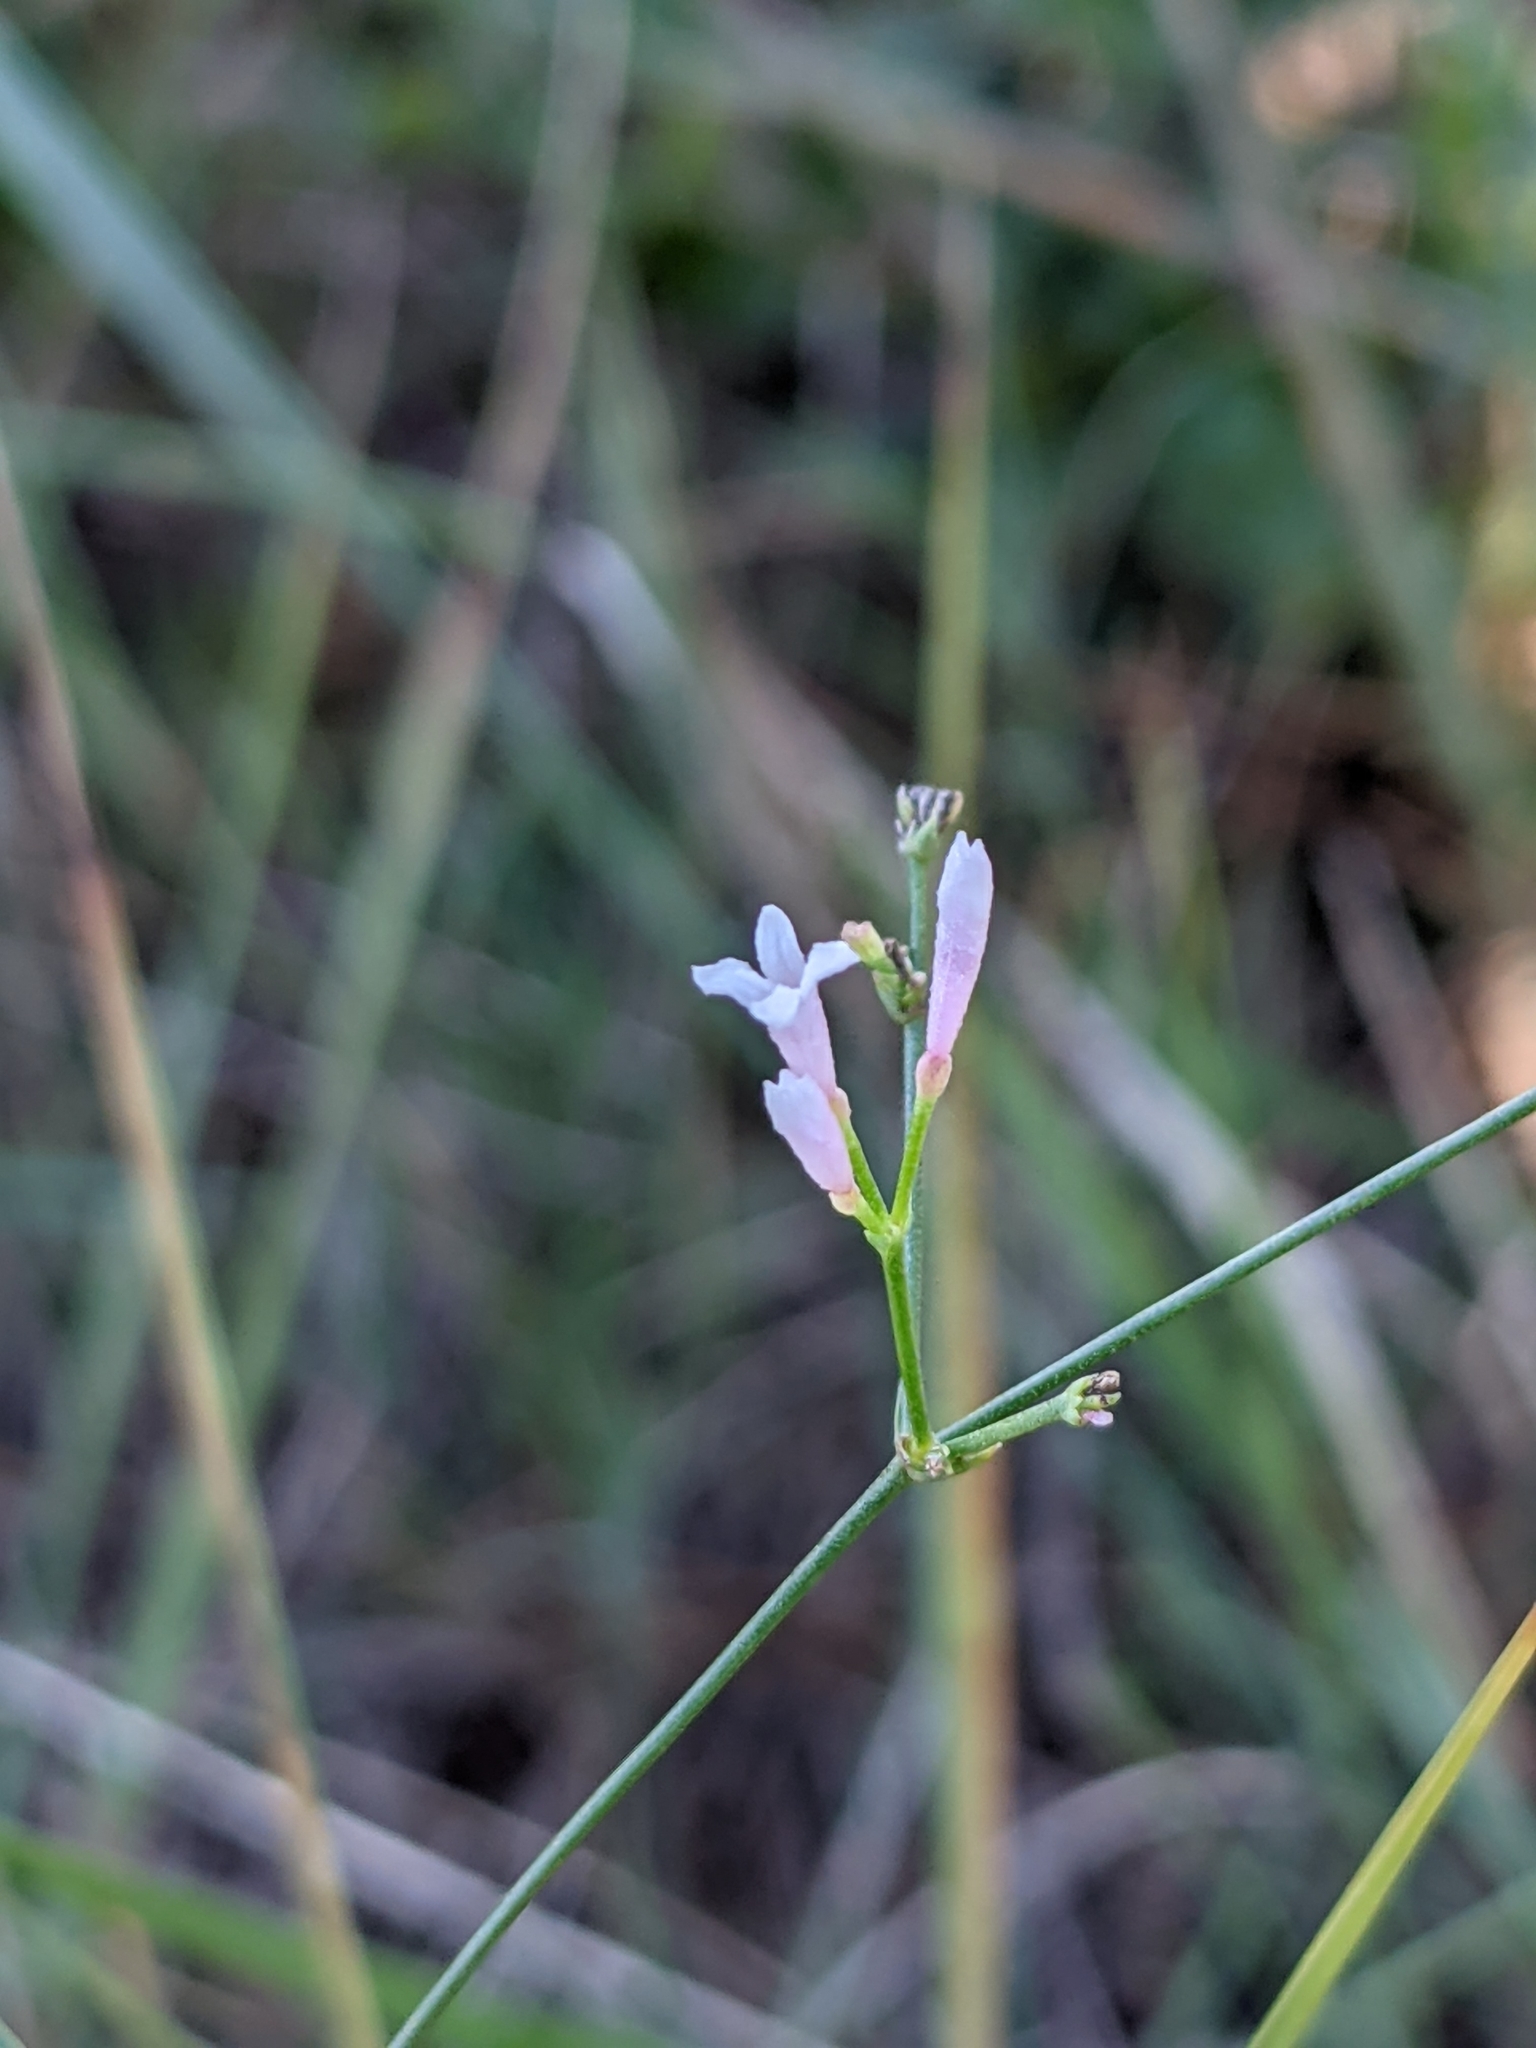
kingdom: Plantae
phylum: Tracheophyta
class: Magnoliopsida
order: Gentianales
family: Rubiaceae
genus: Cynanchica
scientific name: Cynanchica pyrenaica
